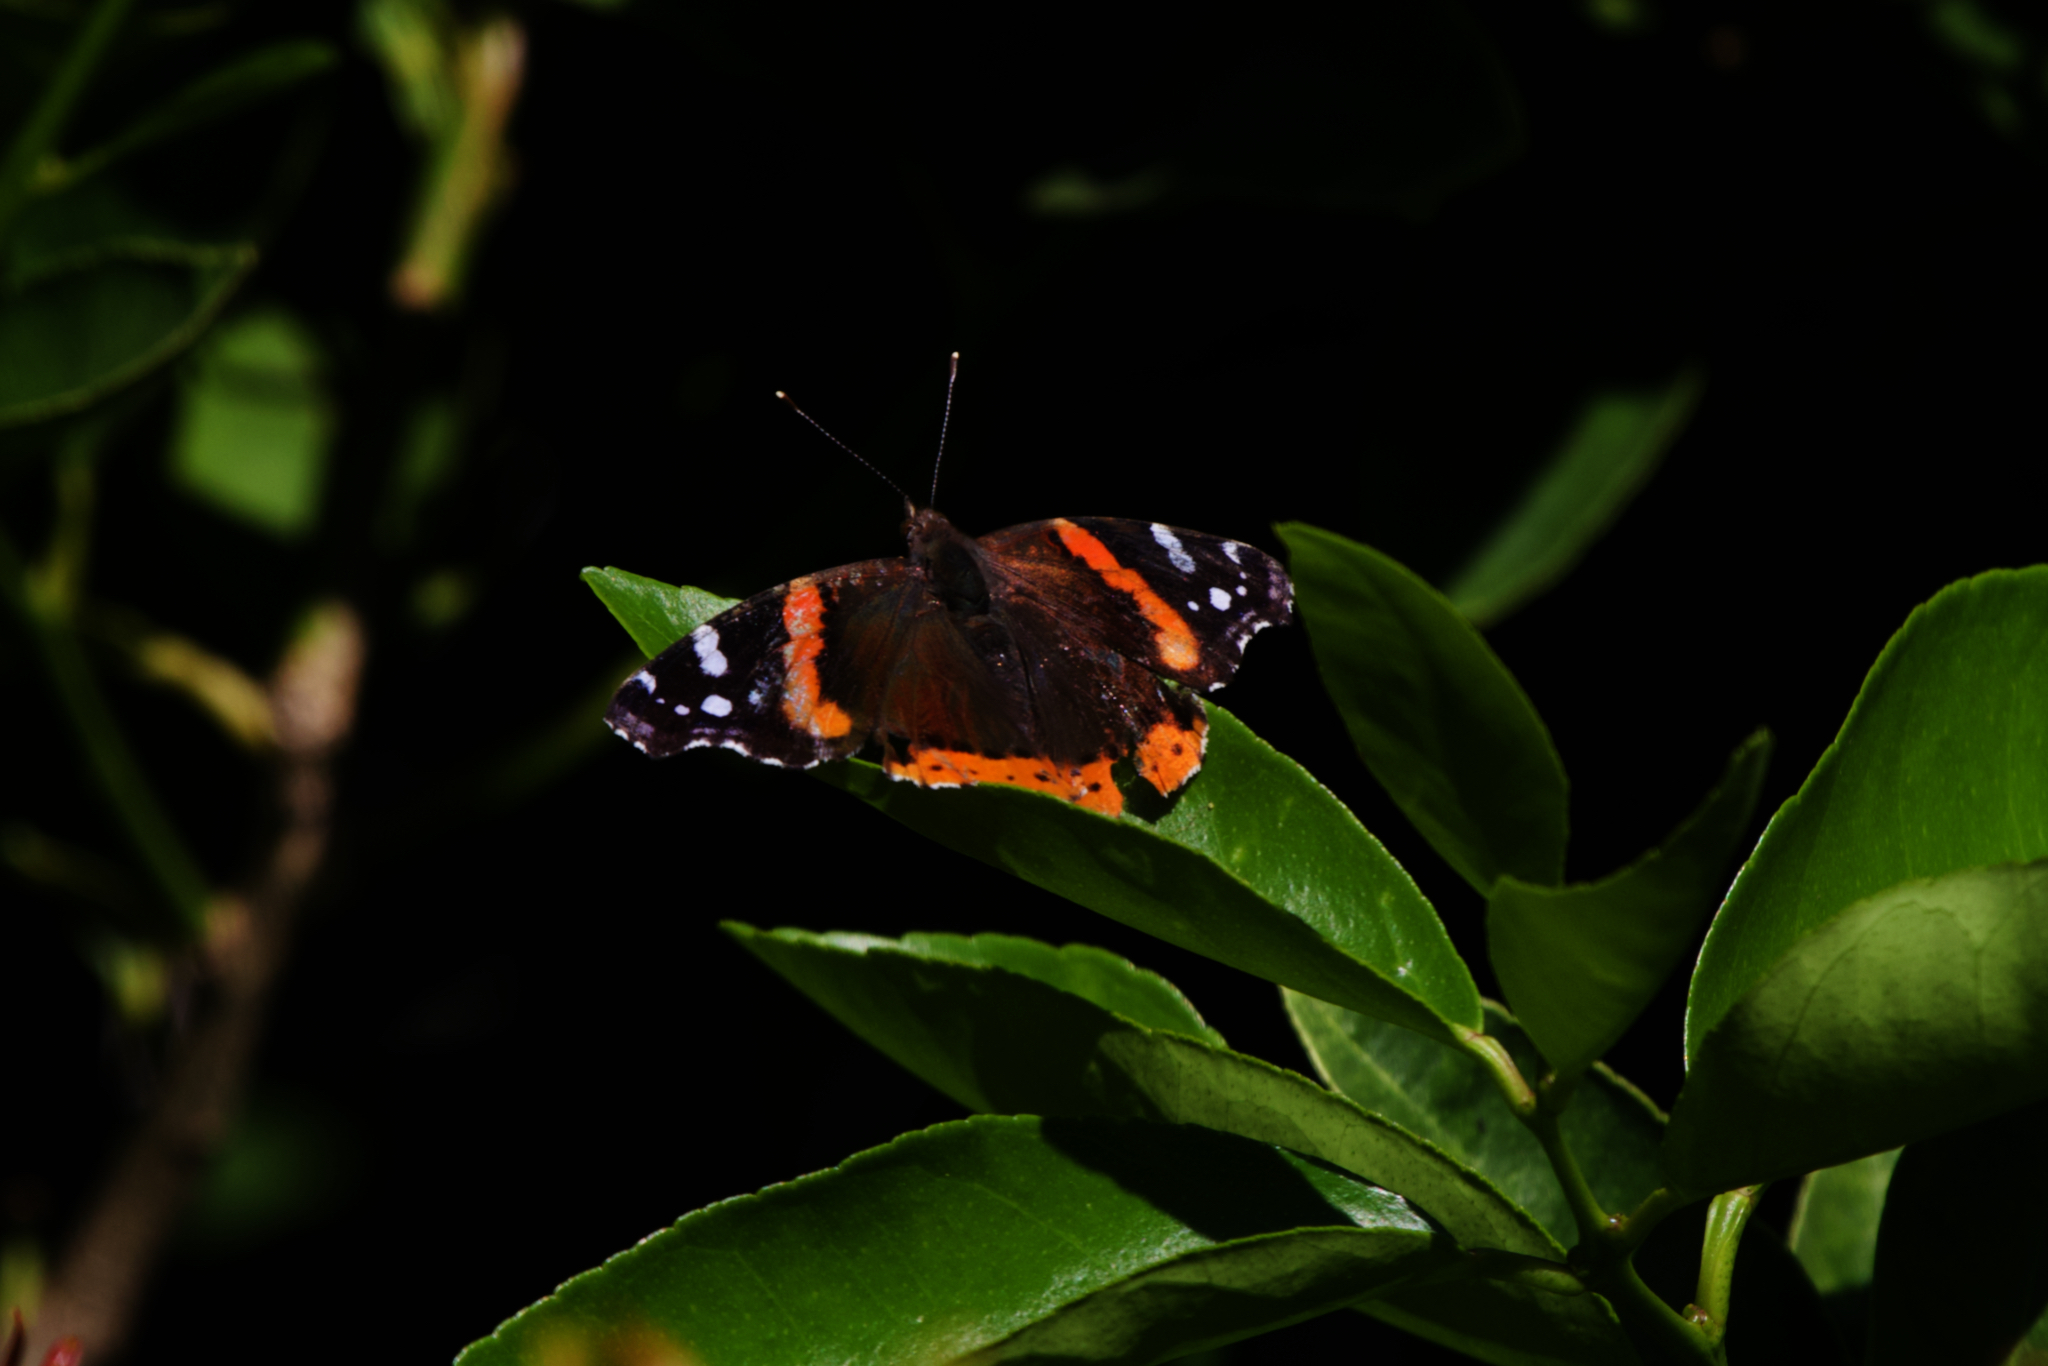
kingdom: Animalia
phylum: Arthropoda
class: Insecta
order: Lepidoptera
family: Nymphalidae
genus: Vanessa
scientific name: Vanessa atalanta
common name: Red admiral
